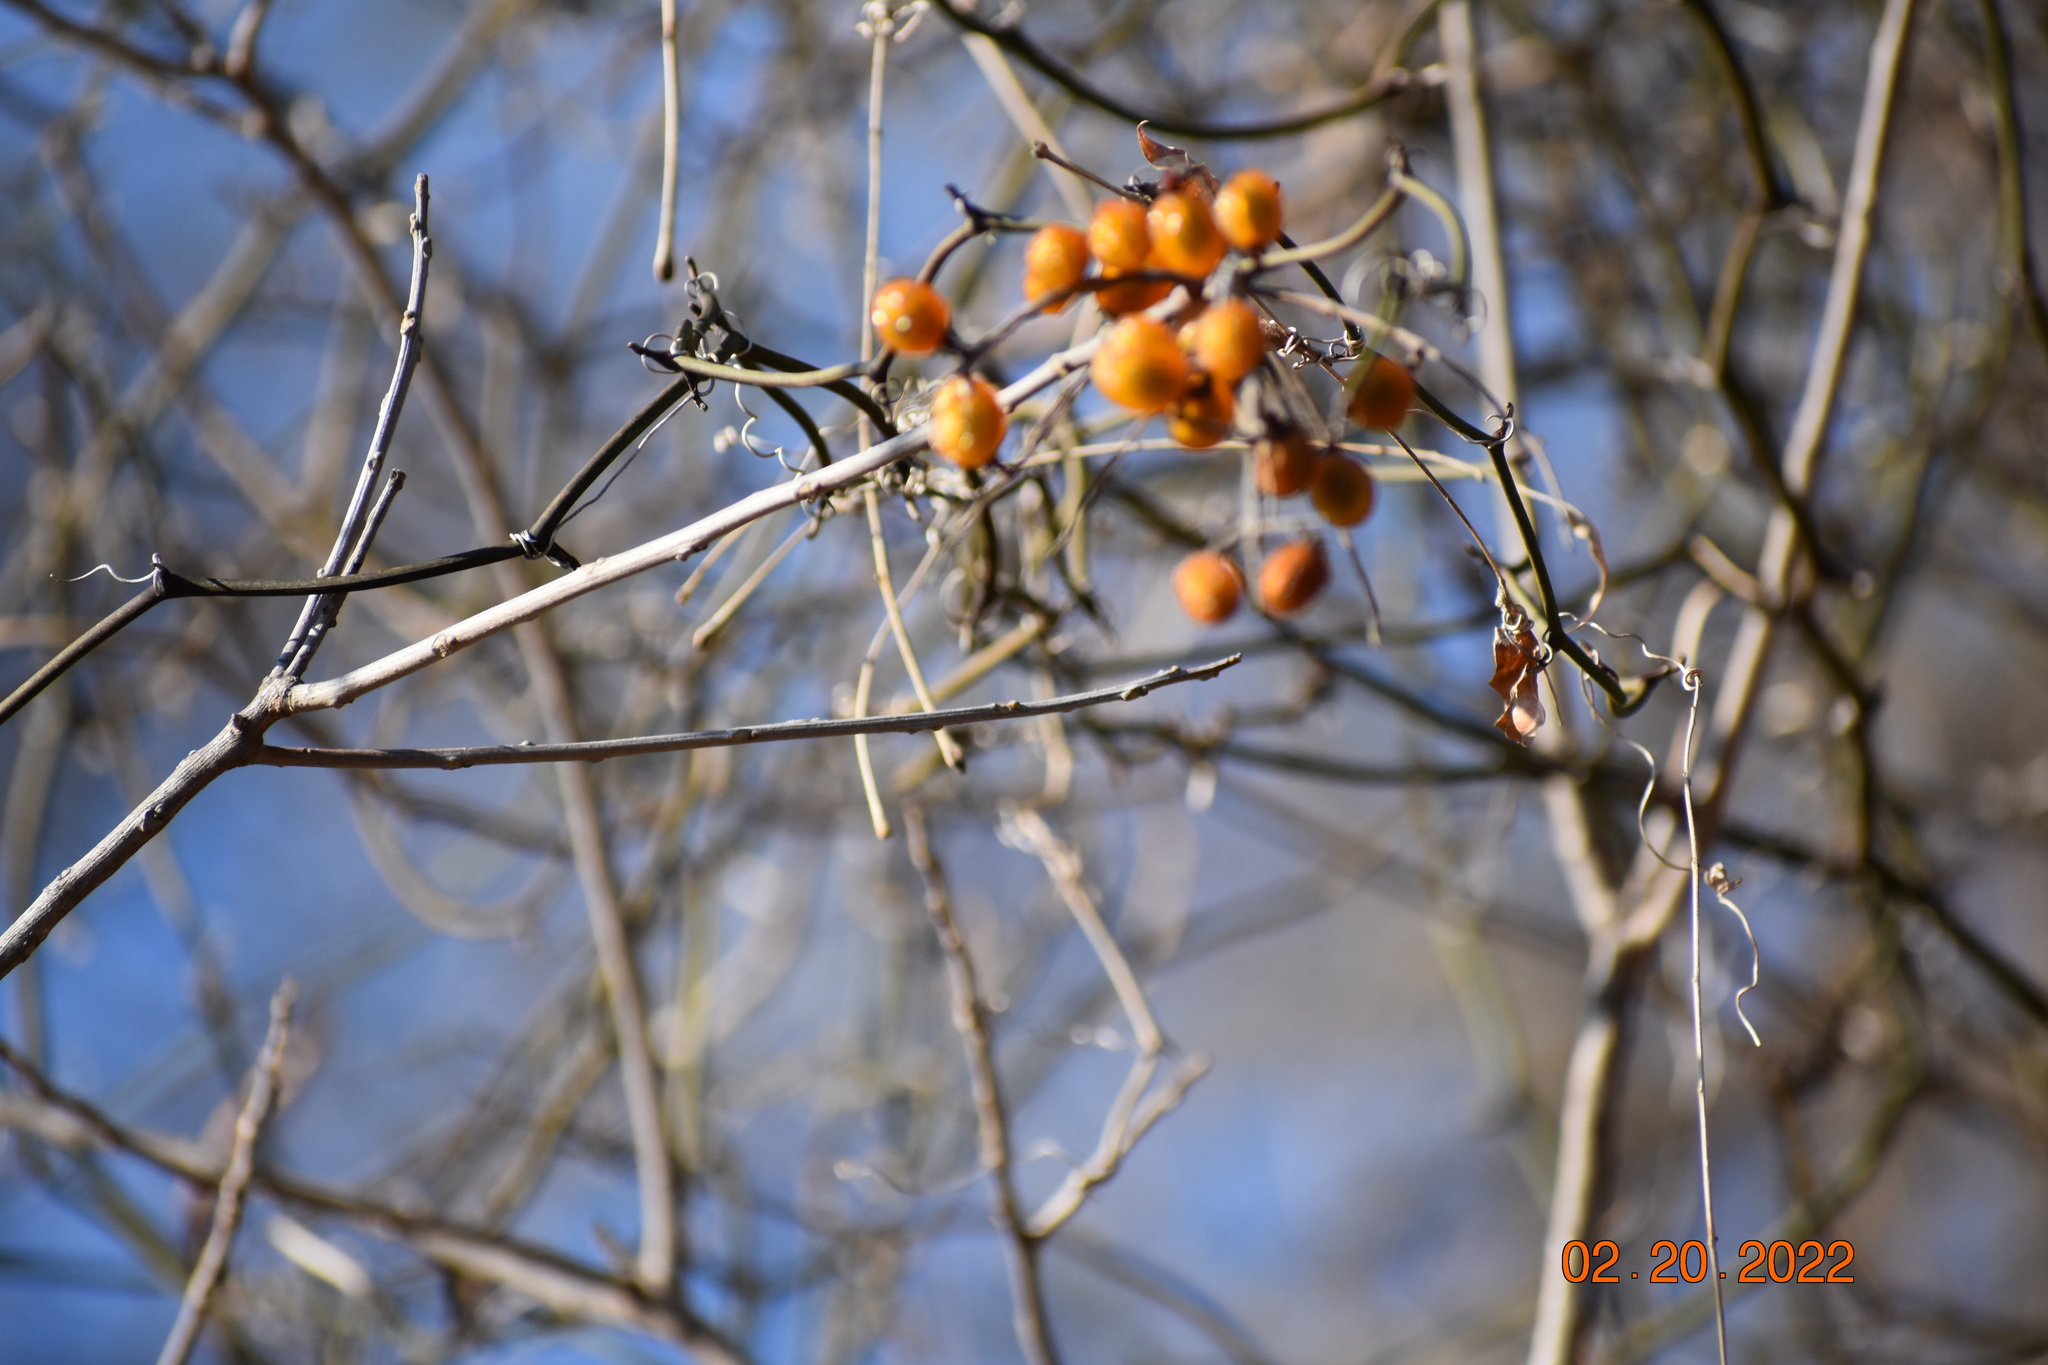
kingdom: Plantae
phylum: Tracheophyta
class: Magnoliopsida
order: Sapindales
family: Sapindaceae
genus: Sapindus
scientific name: Sapindus drummondii
